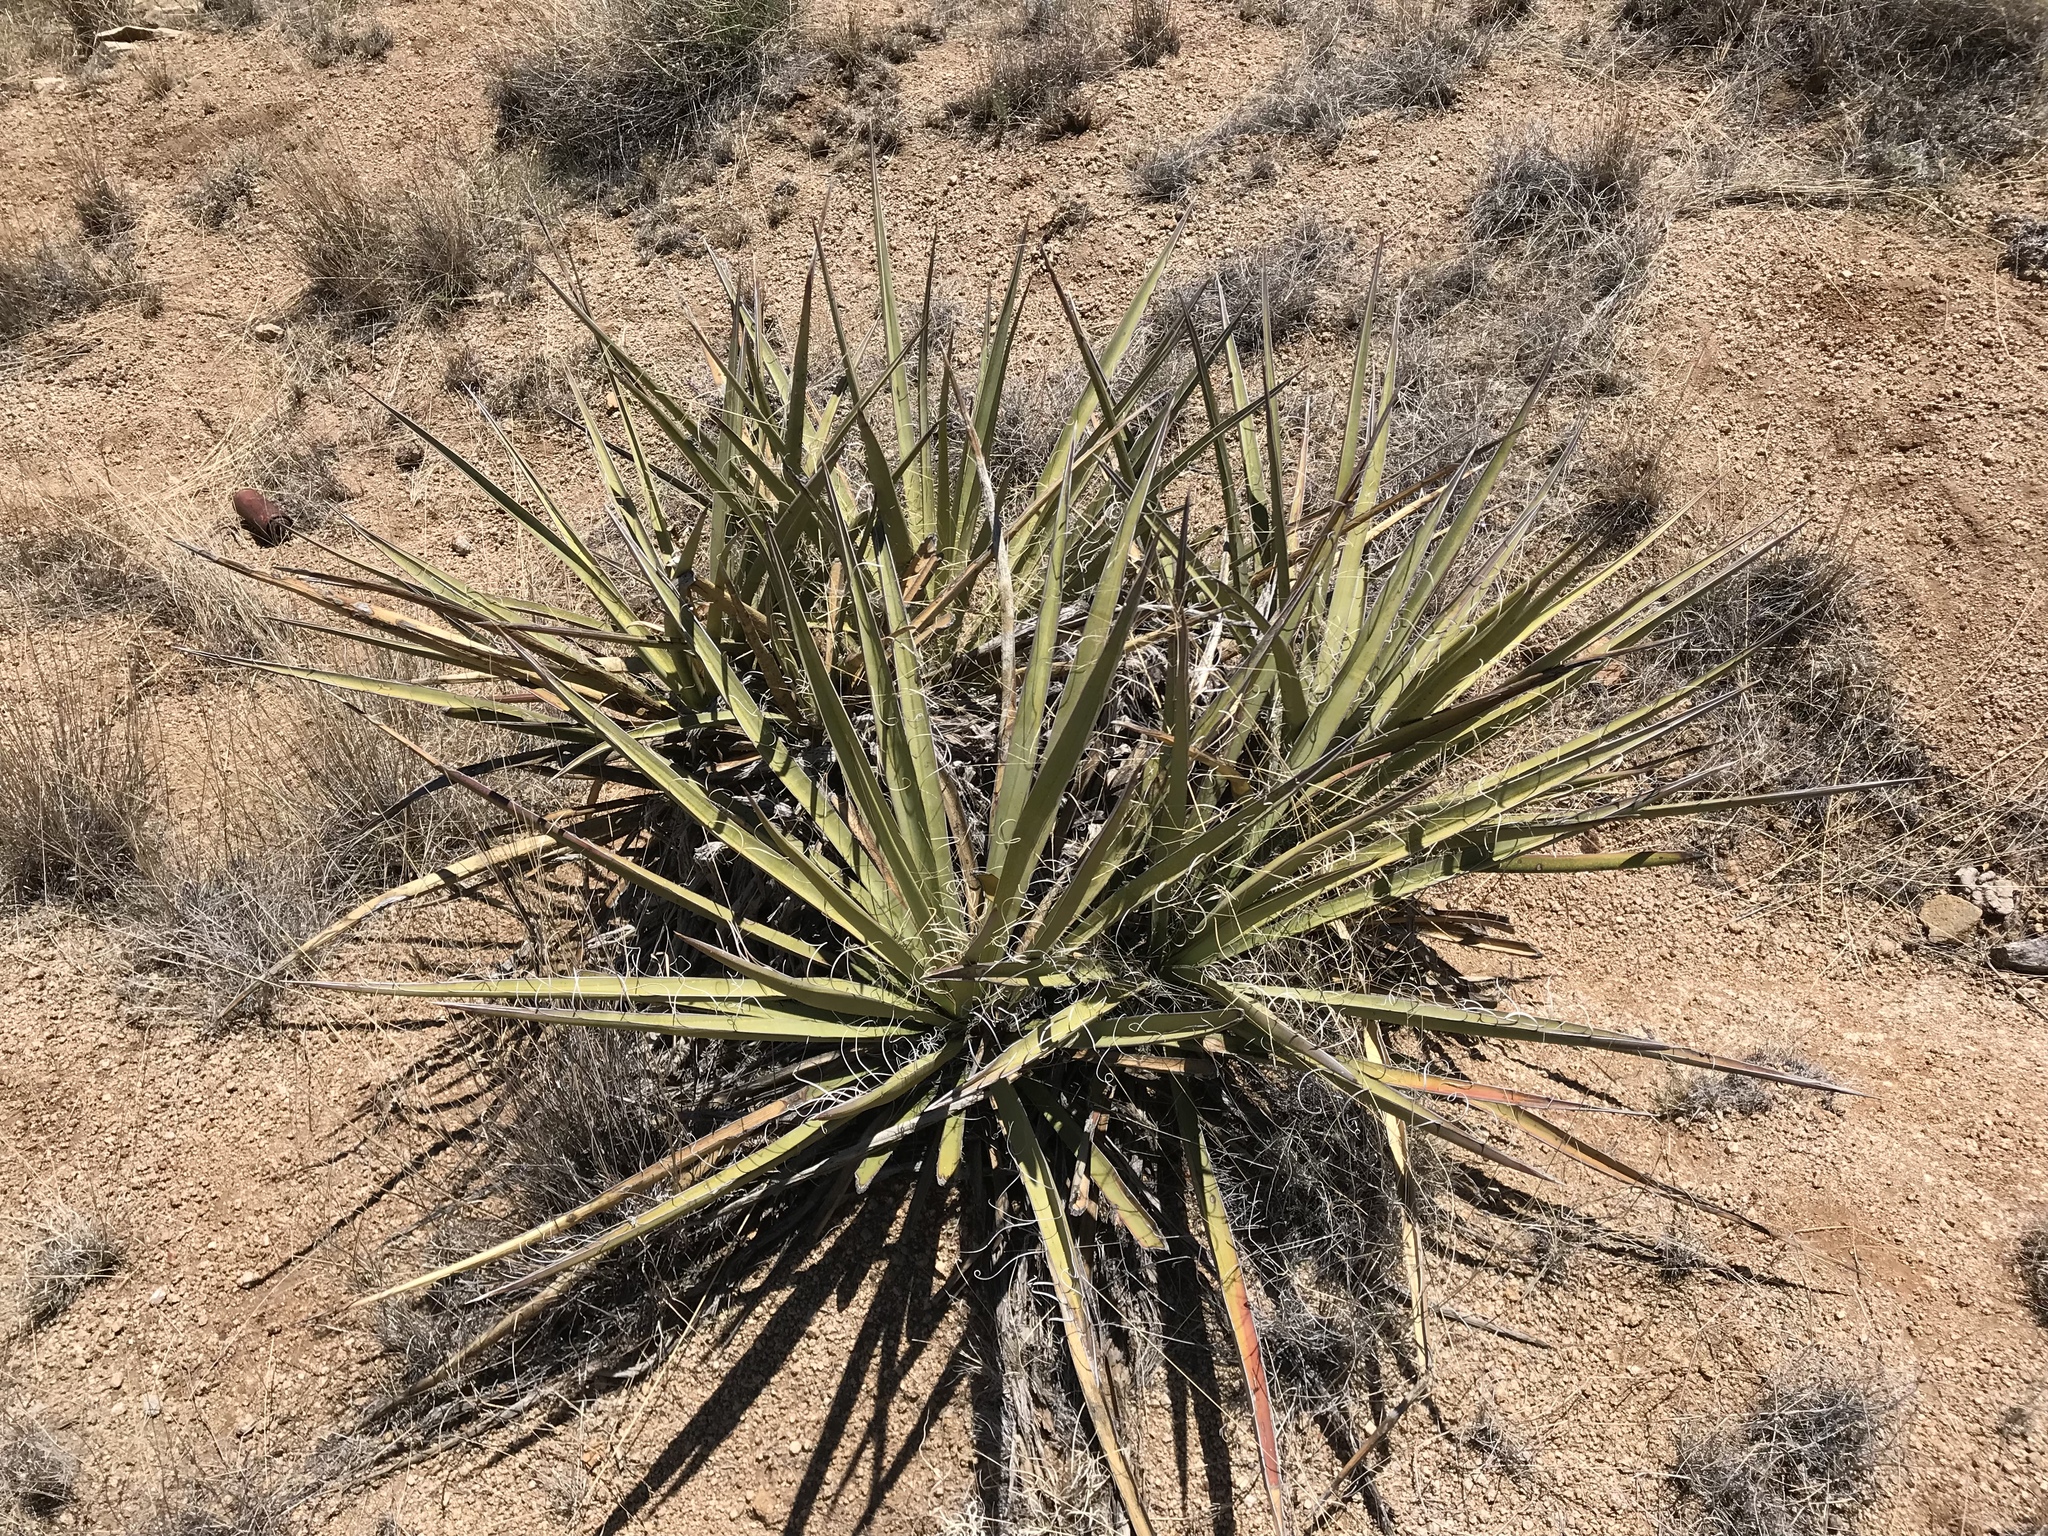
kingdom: Plantae
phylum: Tracheophyta
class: Liliopsida
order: Asparagales
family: Asparagaceae
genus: Yucca
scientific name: Yucca baccata
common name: Banana yucca
